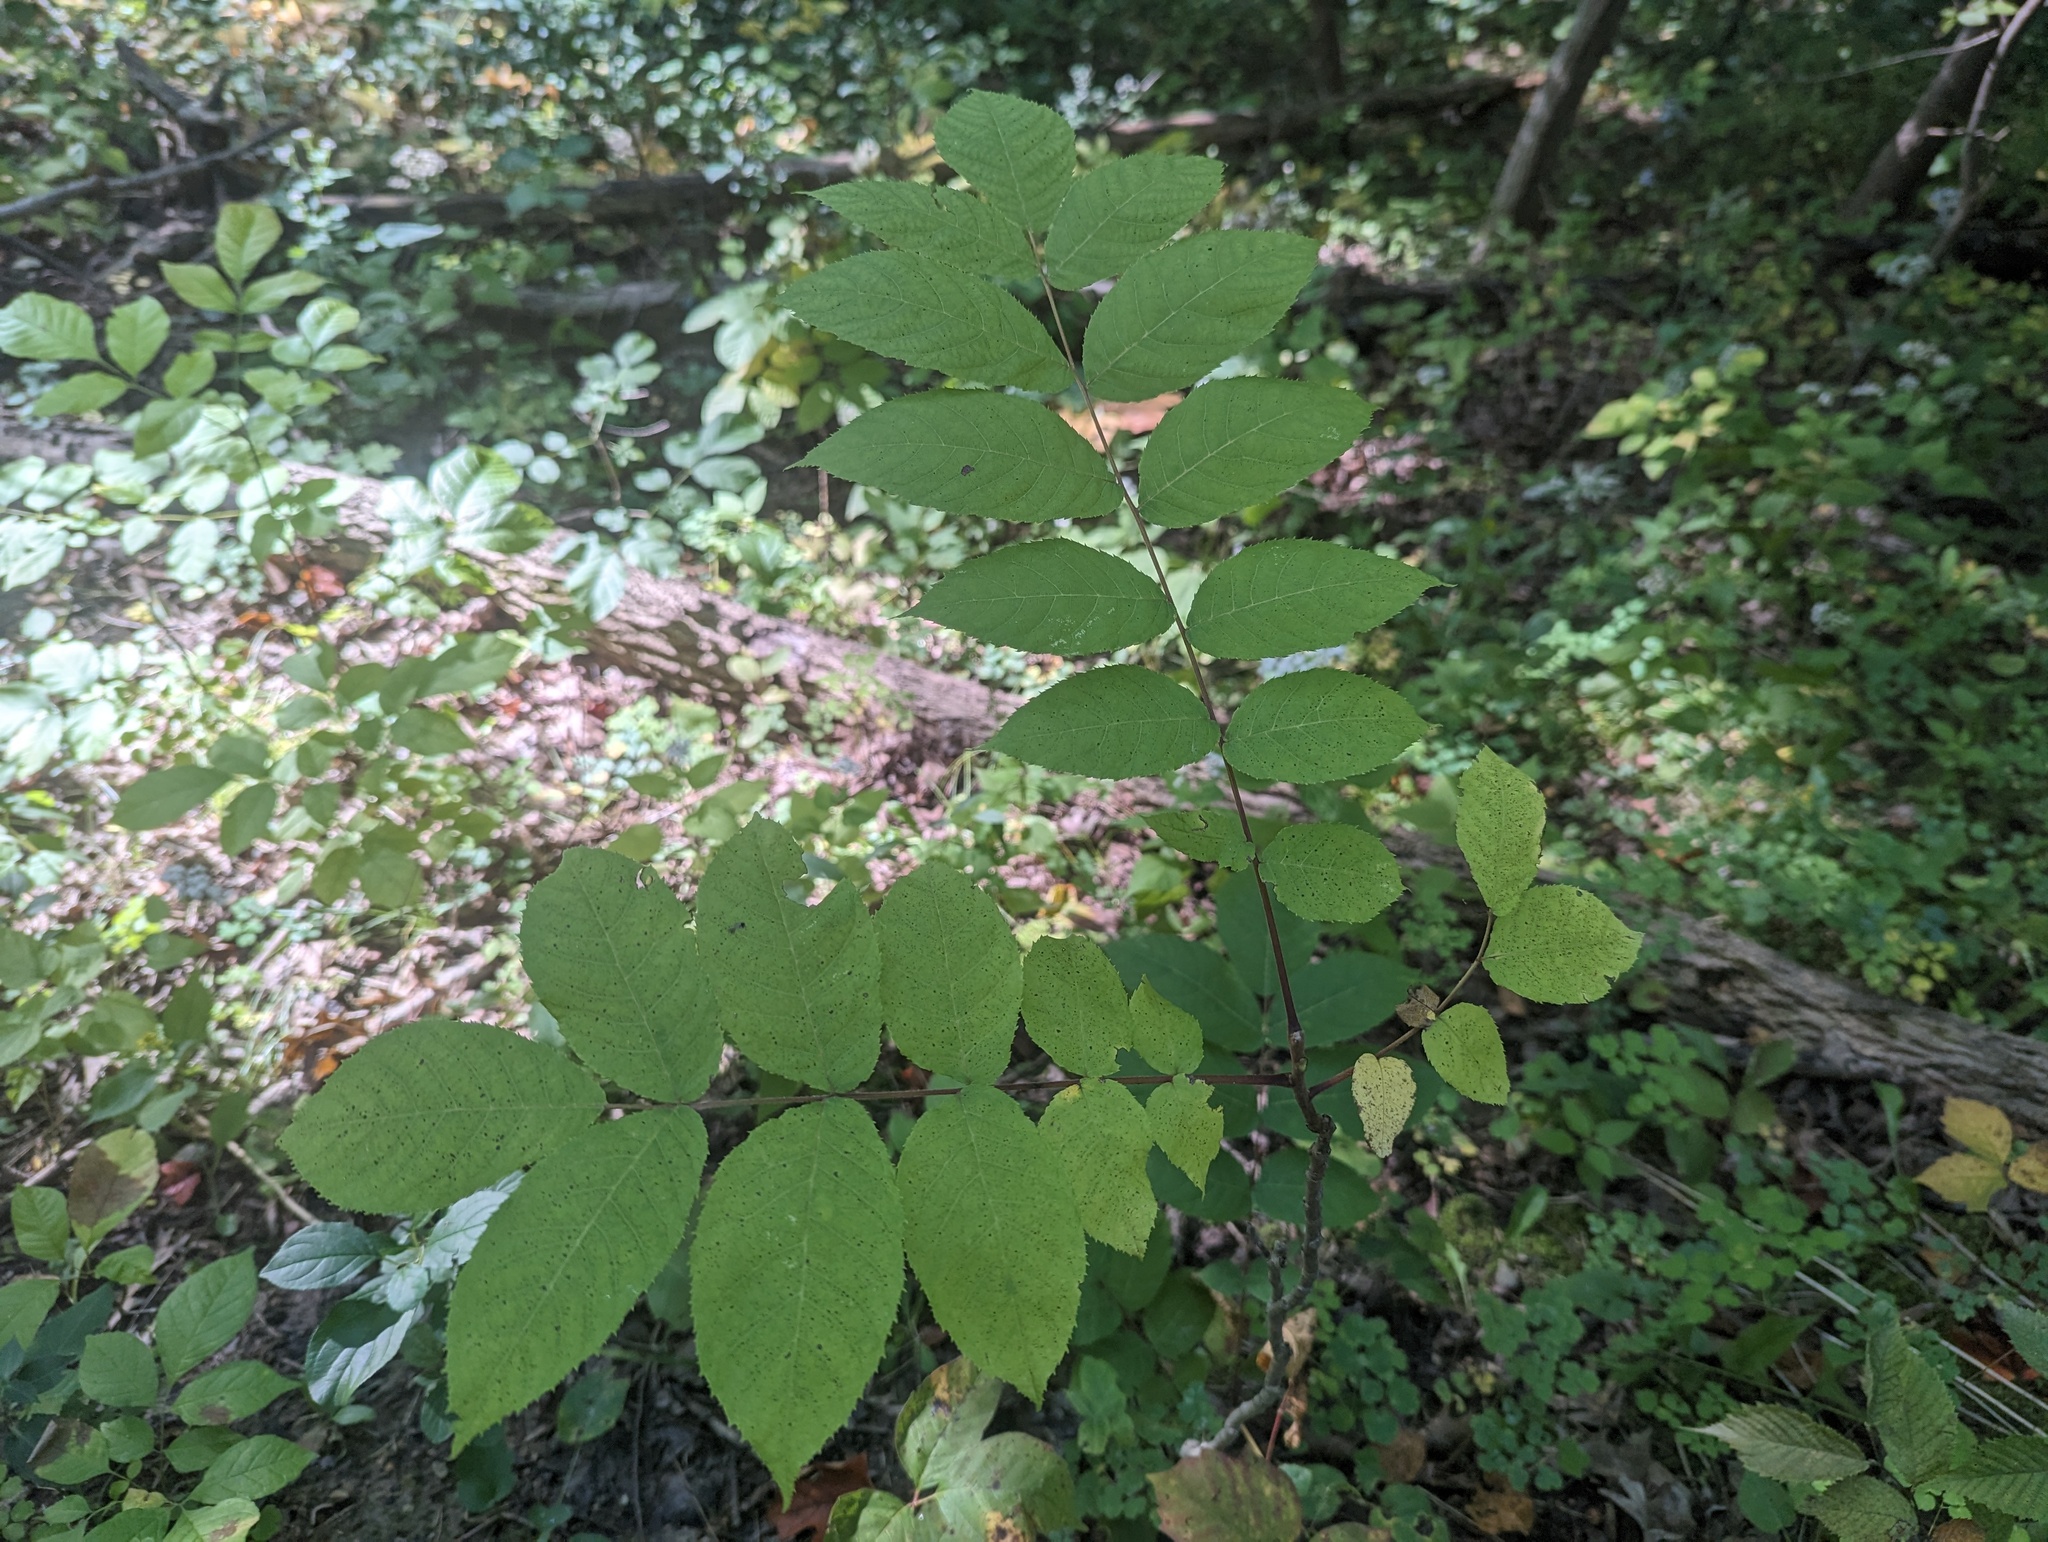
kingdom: Plantae
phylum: Tracheophyta
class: Magnoliopsida
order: Fagales
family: Juglandaceae
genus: Juglans
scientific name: Juglans nigra
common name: Black walnut
